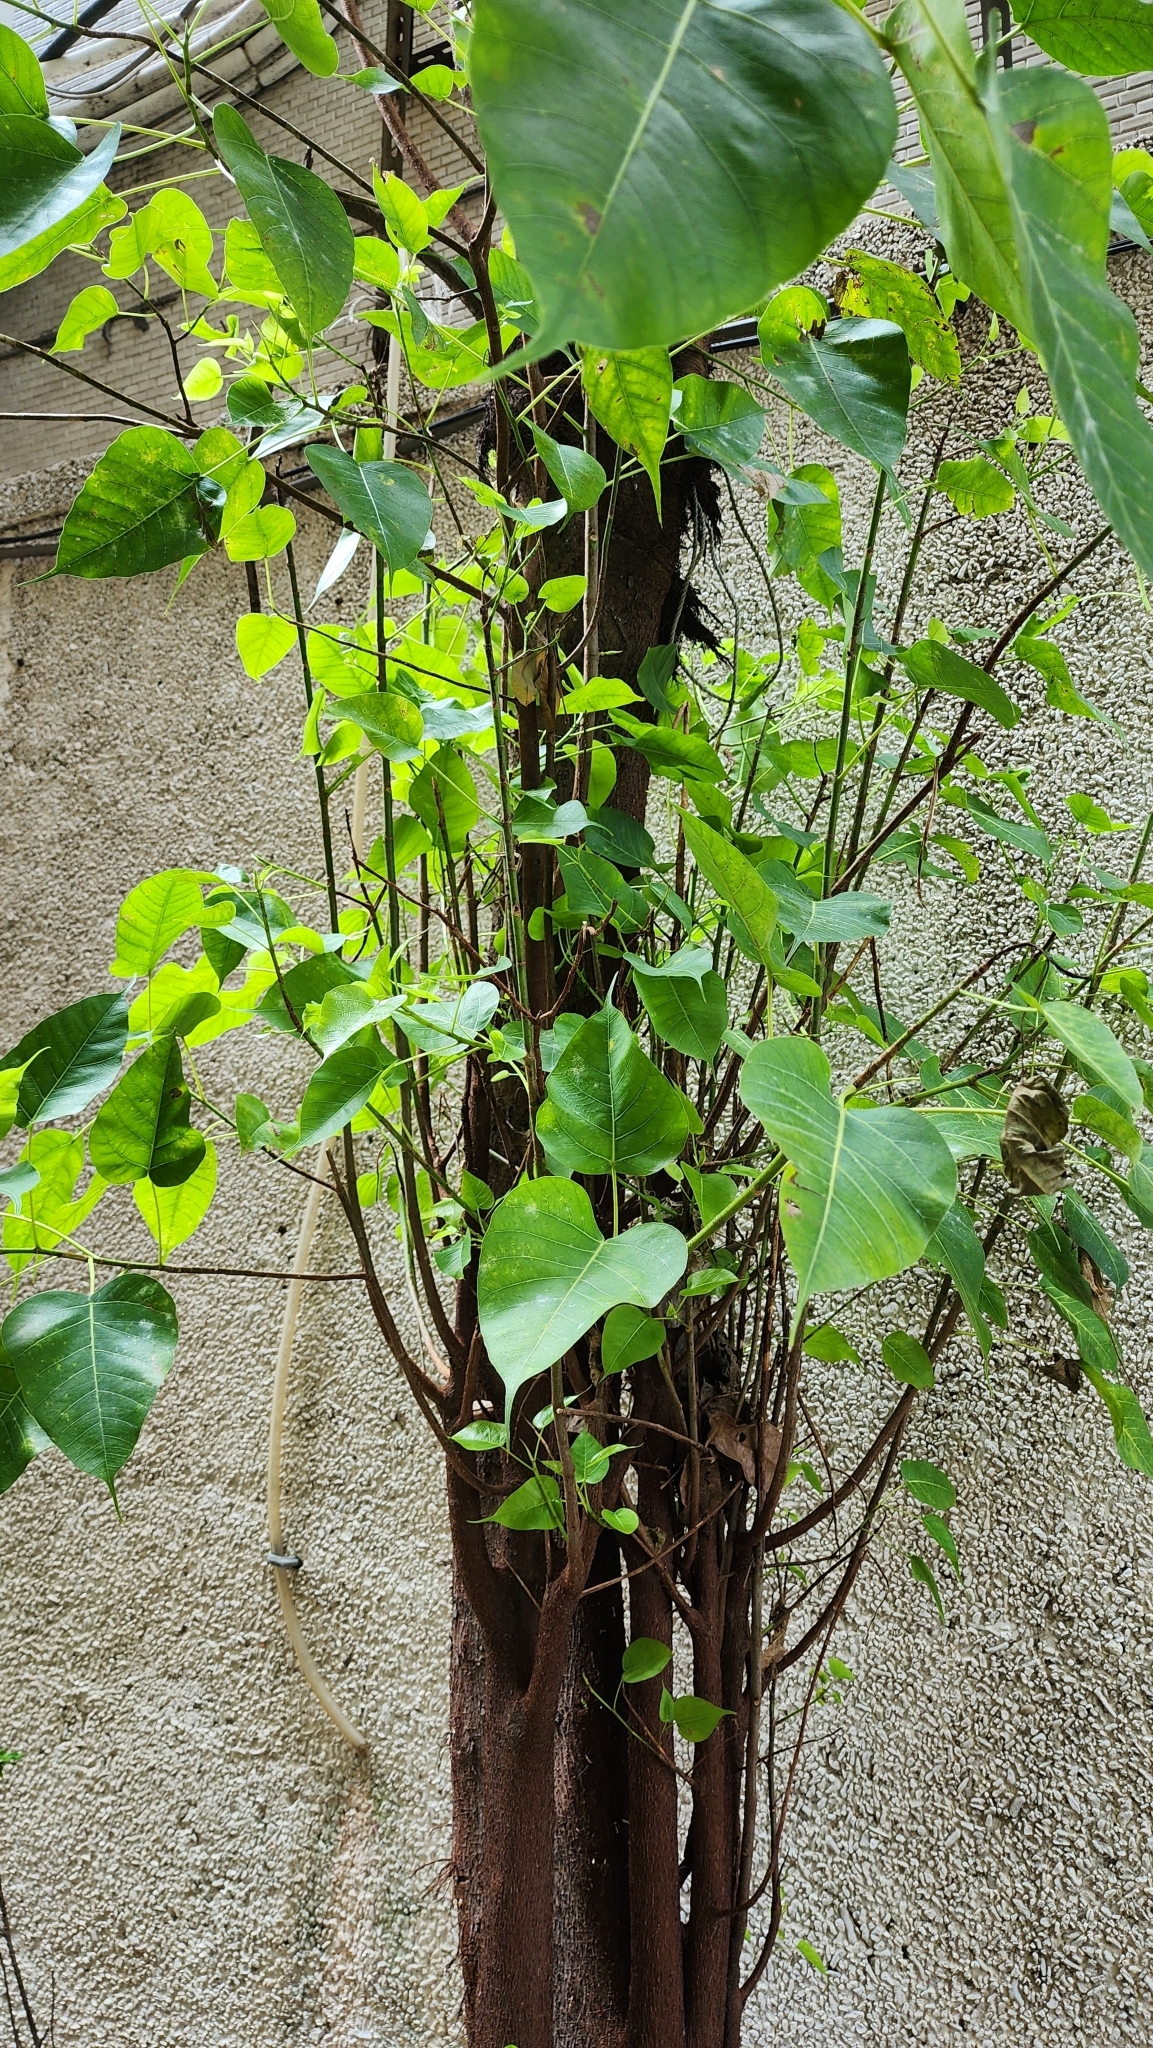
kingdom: Plantae
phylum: Tracheophyta
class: Magnoliopsida
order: Rosales
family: Moraceae
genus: Ficus
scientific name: Ficus religiosa
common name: Bodhi tree
